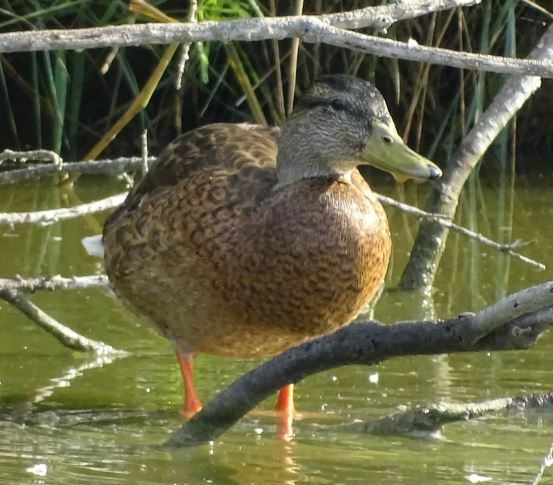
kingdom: Animalia
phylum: Chordata
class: Aves
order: Anseriformes
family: Anatidae
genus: Anas
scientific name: Anas platyrhynchos
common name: Mallard
